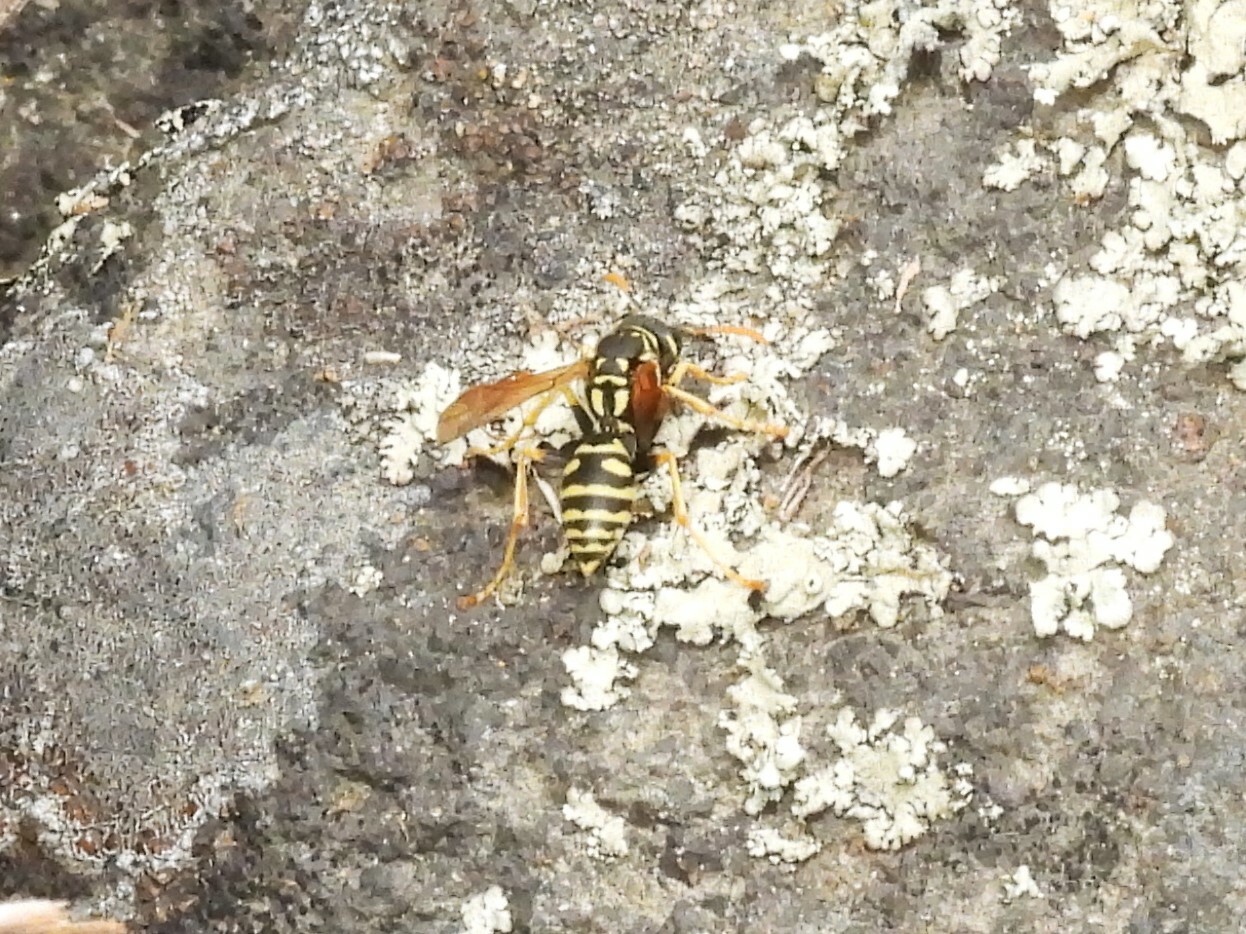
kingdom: Animalia
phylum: Arthropoda
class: Insecta
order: Hymenoptera
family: Eumenidae
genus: Polistes
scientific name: Polistes dominula
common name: Paper wasp
